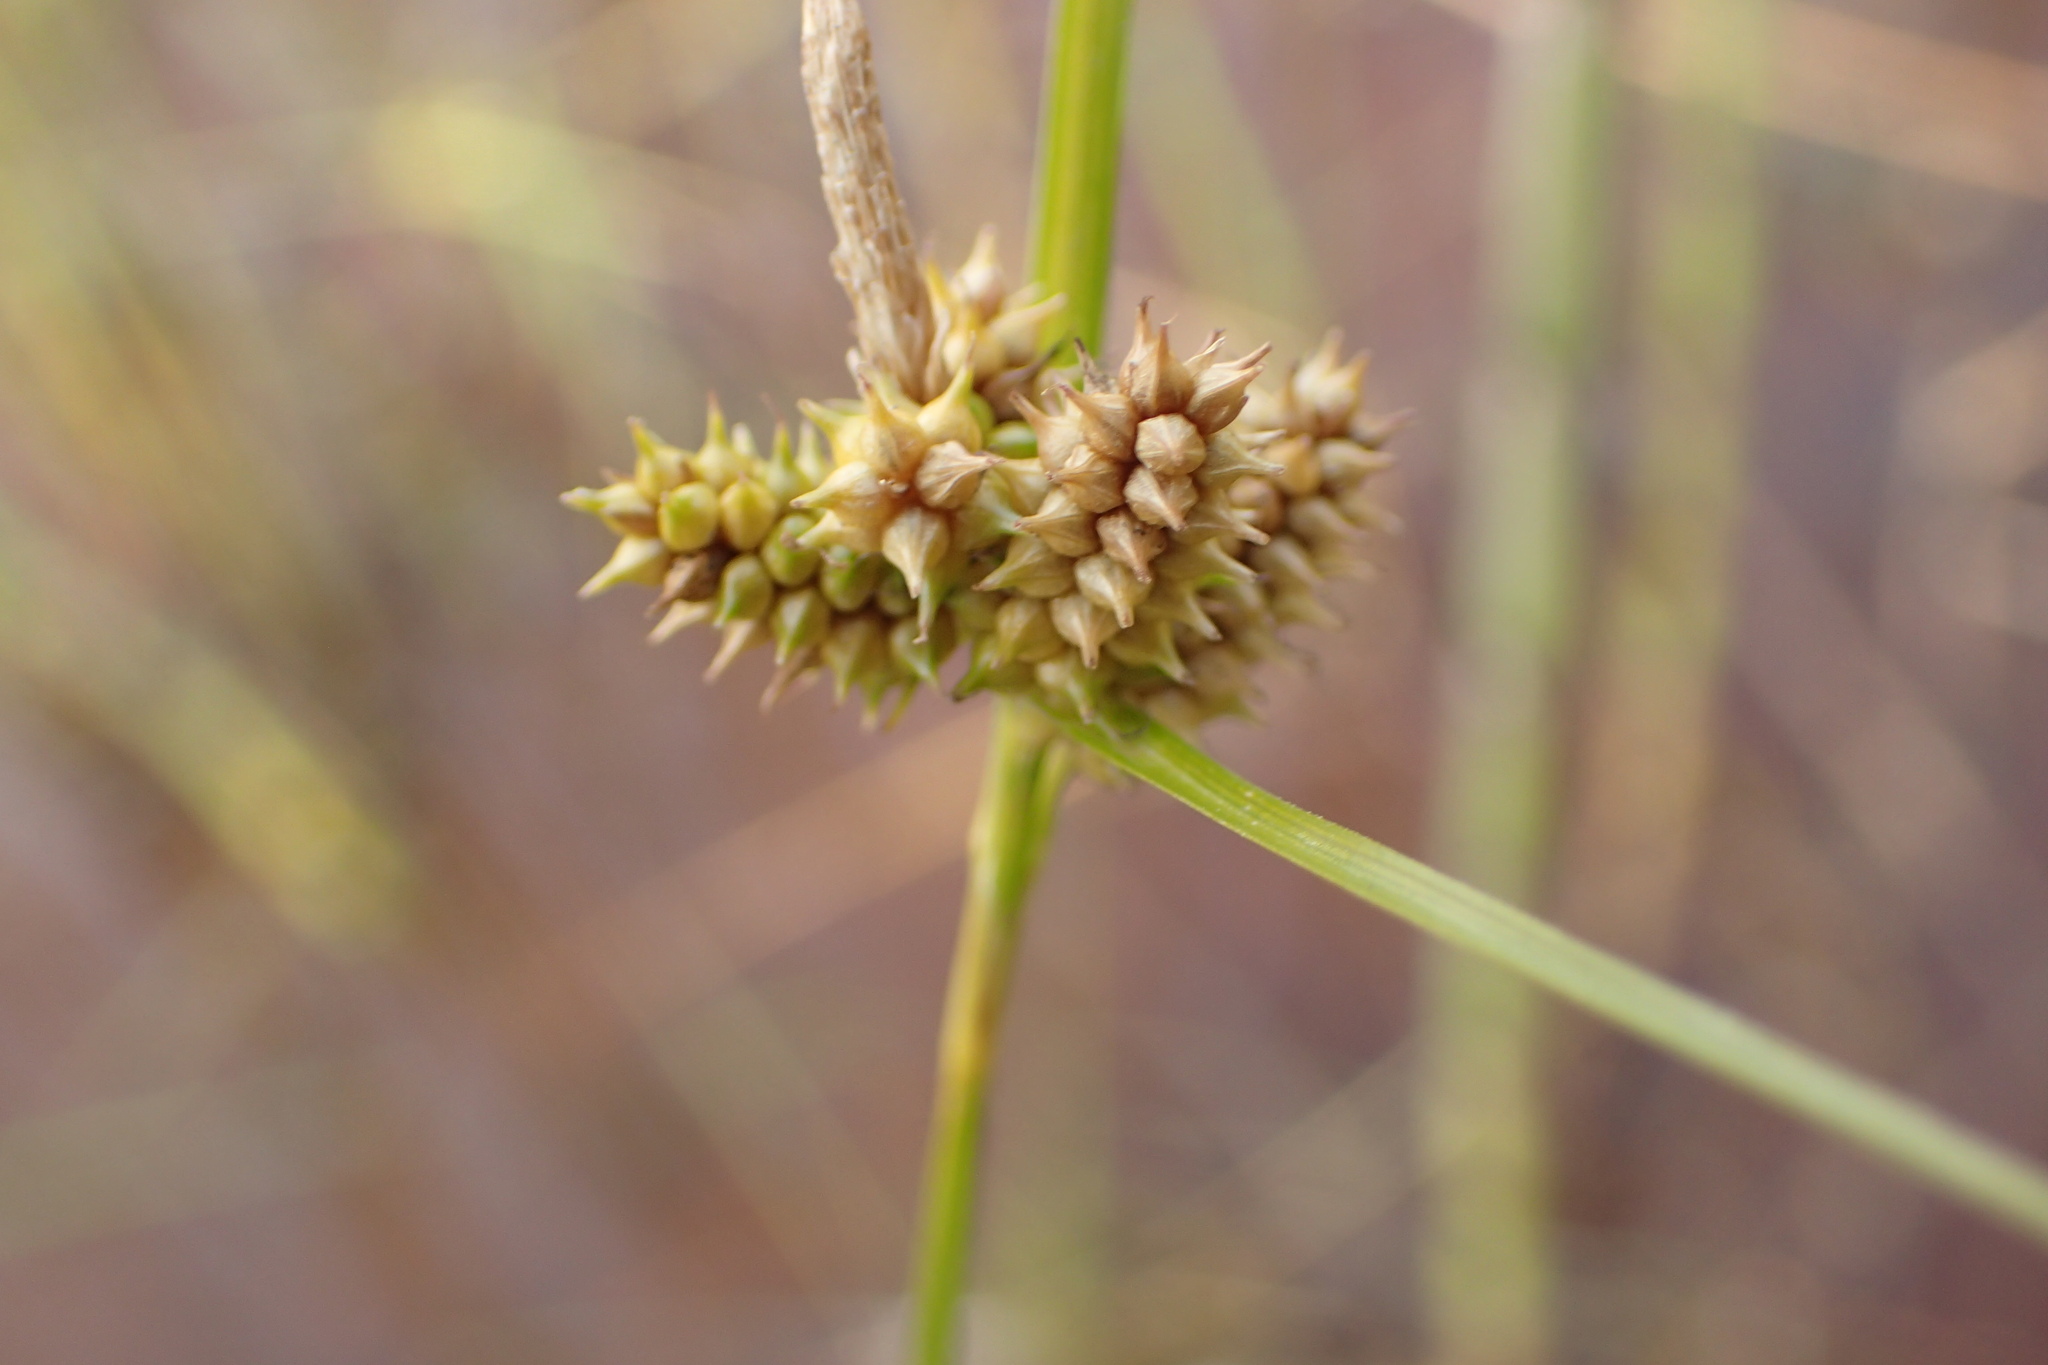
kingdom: Plantae
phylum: Tracheophyta
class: Liliopsida
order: Poales
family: Cyperaceae
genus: Carex
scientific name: Carex
